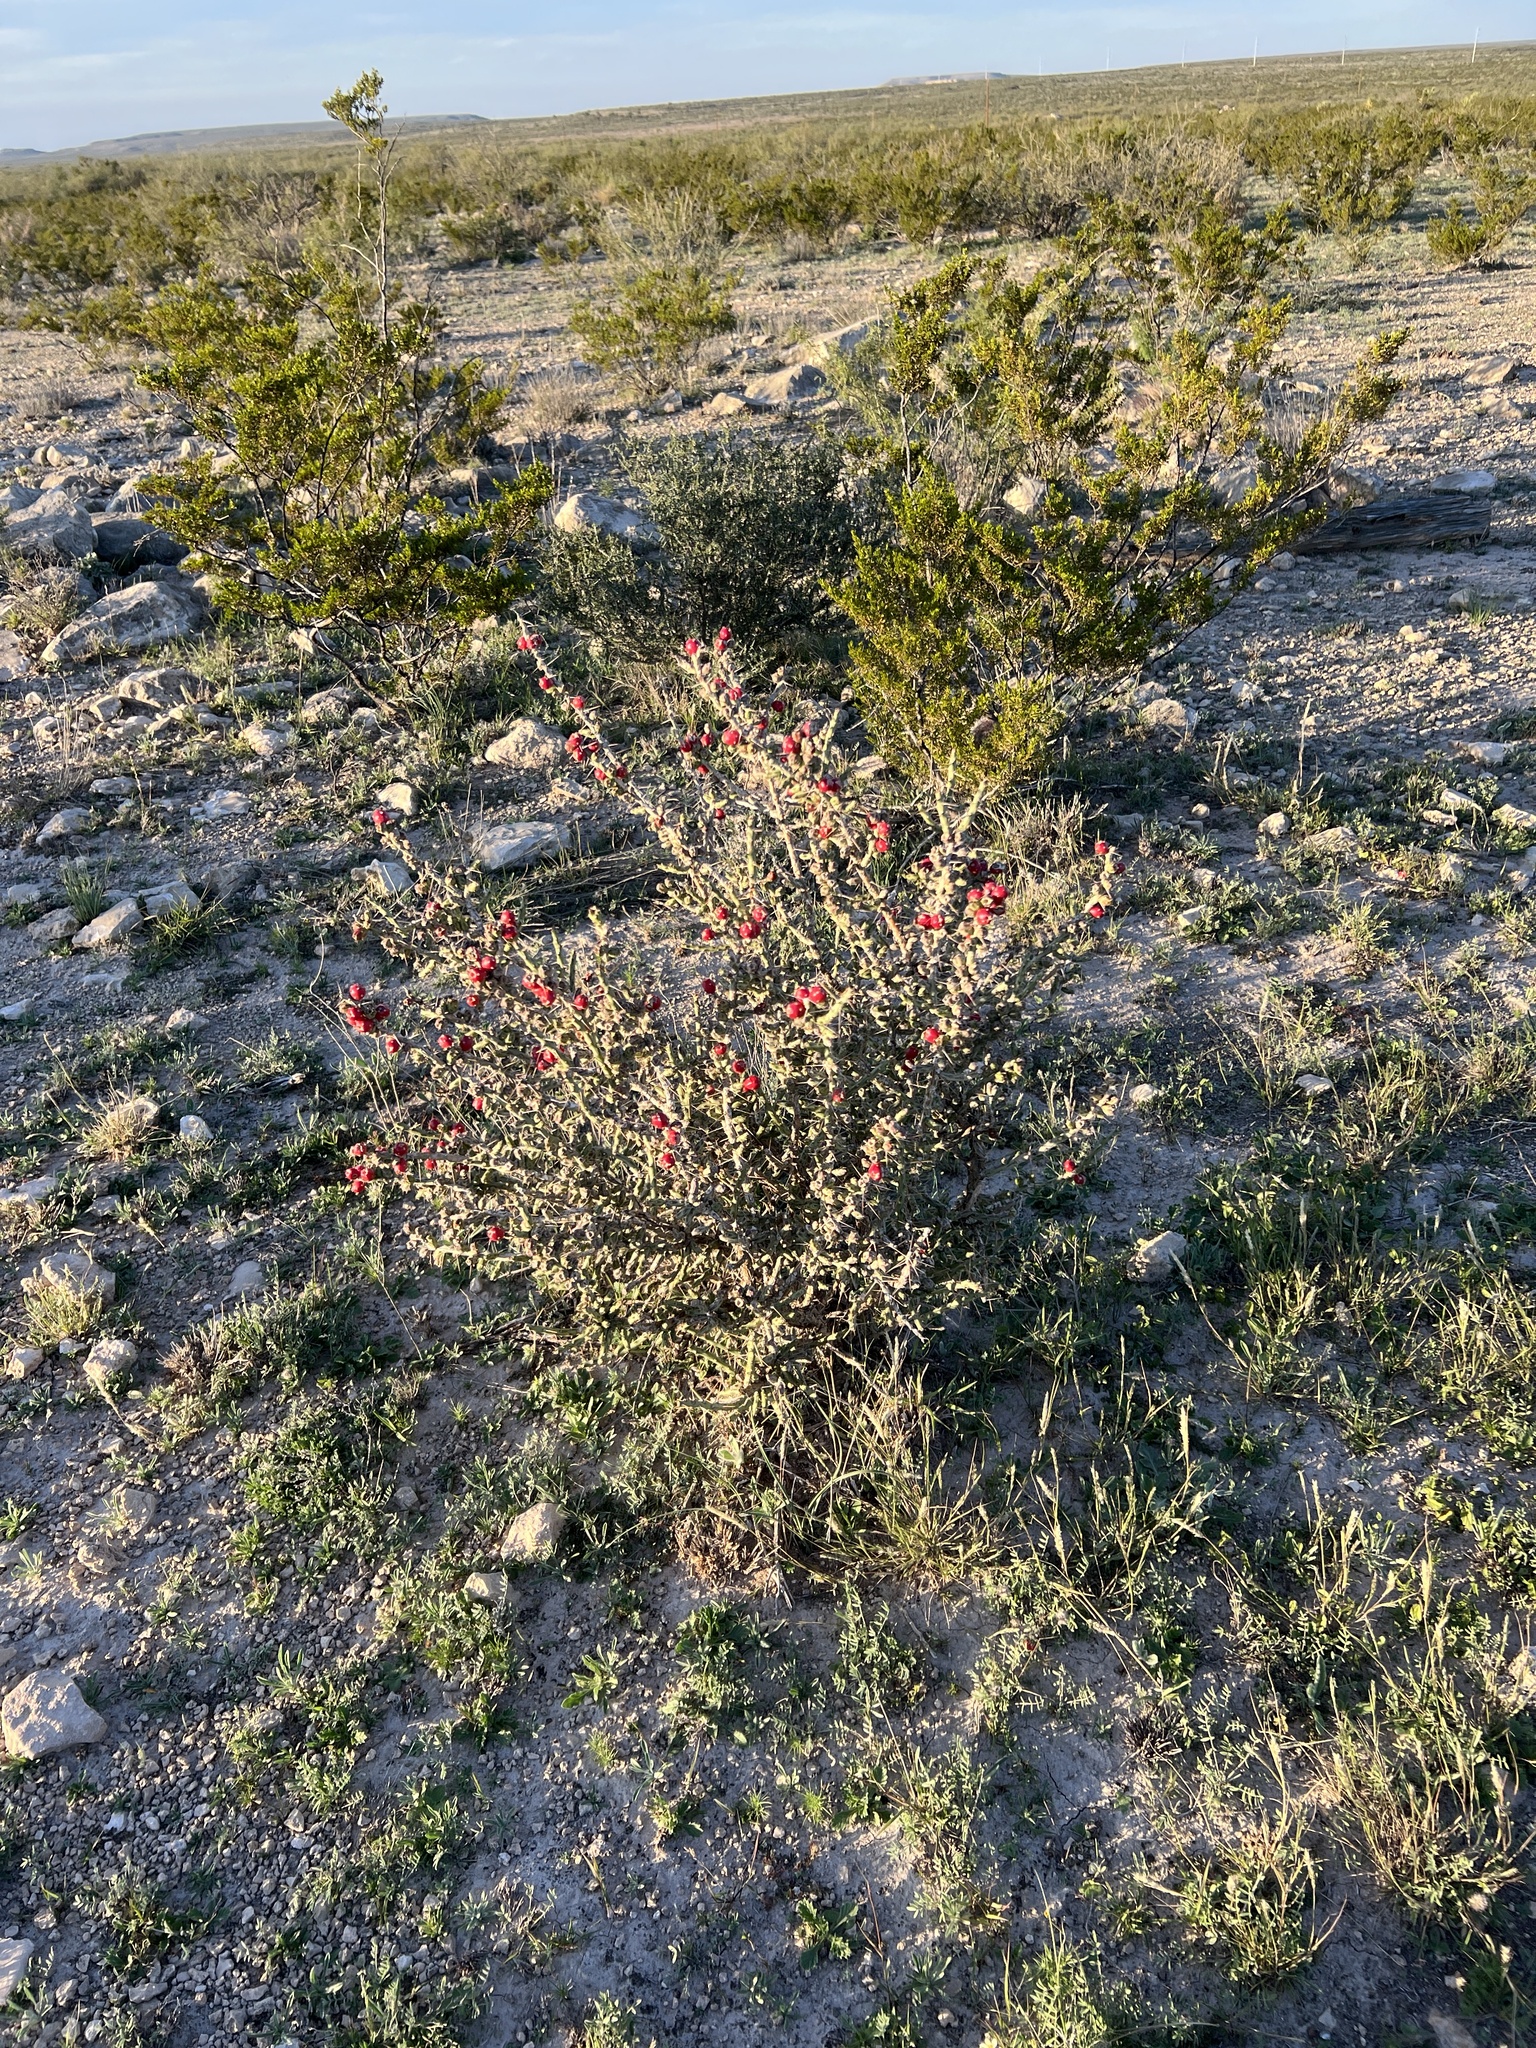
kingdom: Plantae
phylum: Tracheophyta
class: Magnoliopsida
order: Caryophyllales
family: Cactaceae
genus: Cylindropuntia
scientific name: Cylindropuntia leptocaulis
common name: Christmas cactus
